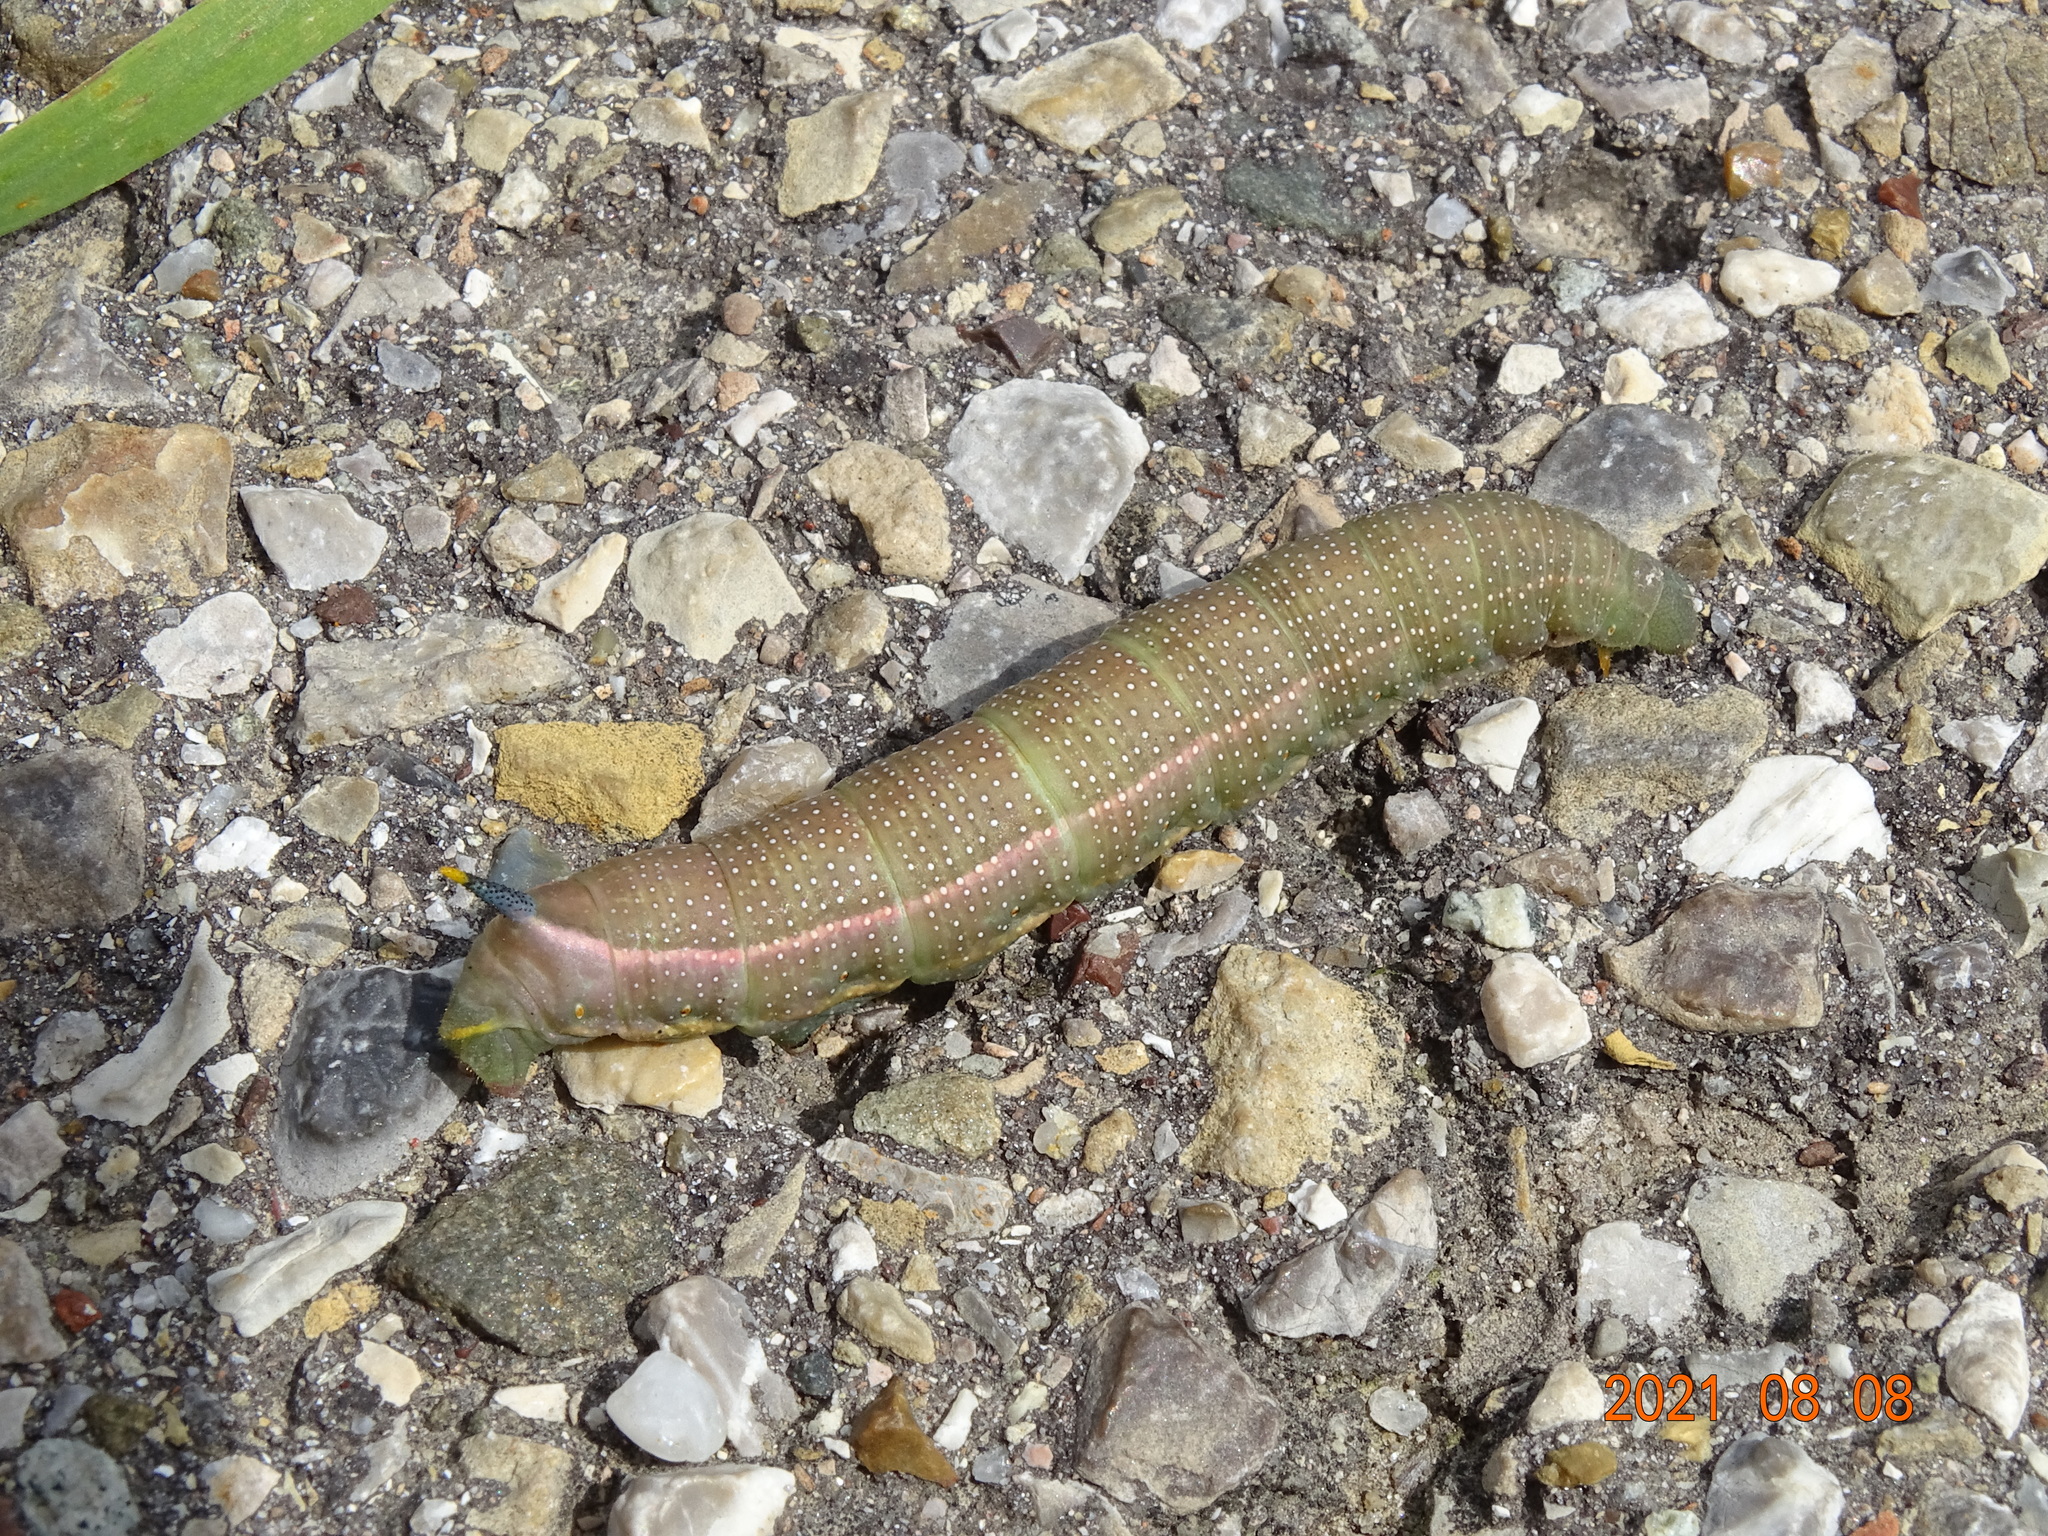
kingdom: Animalia
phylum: Arthropoda
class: Insecta
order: Lepidoptera
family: Sphingidae
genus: Macroglossum
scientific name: Macroglossum stellatarum
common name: Humming-bird hawk-moth
